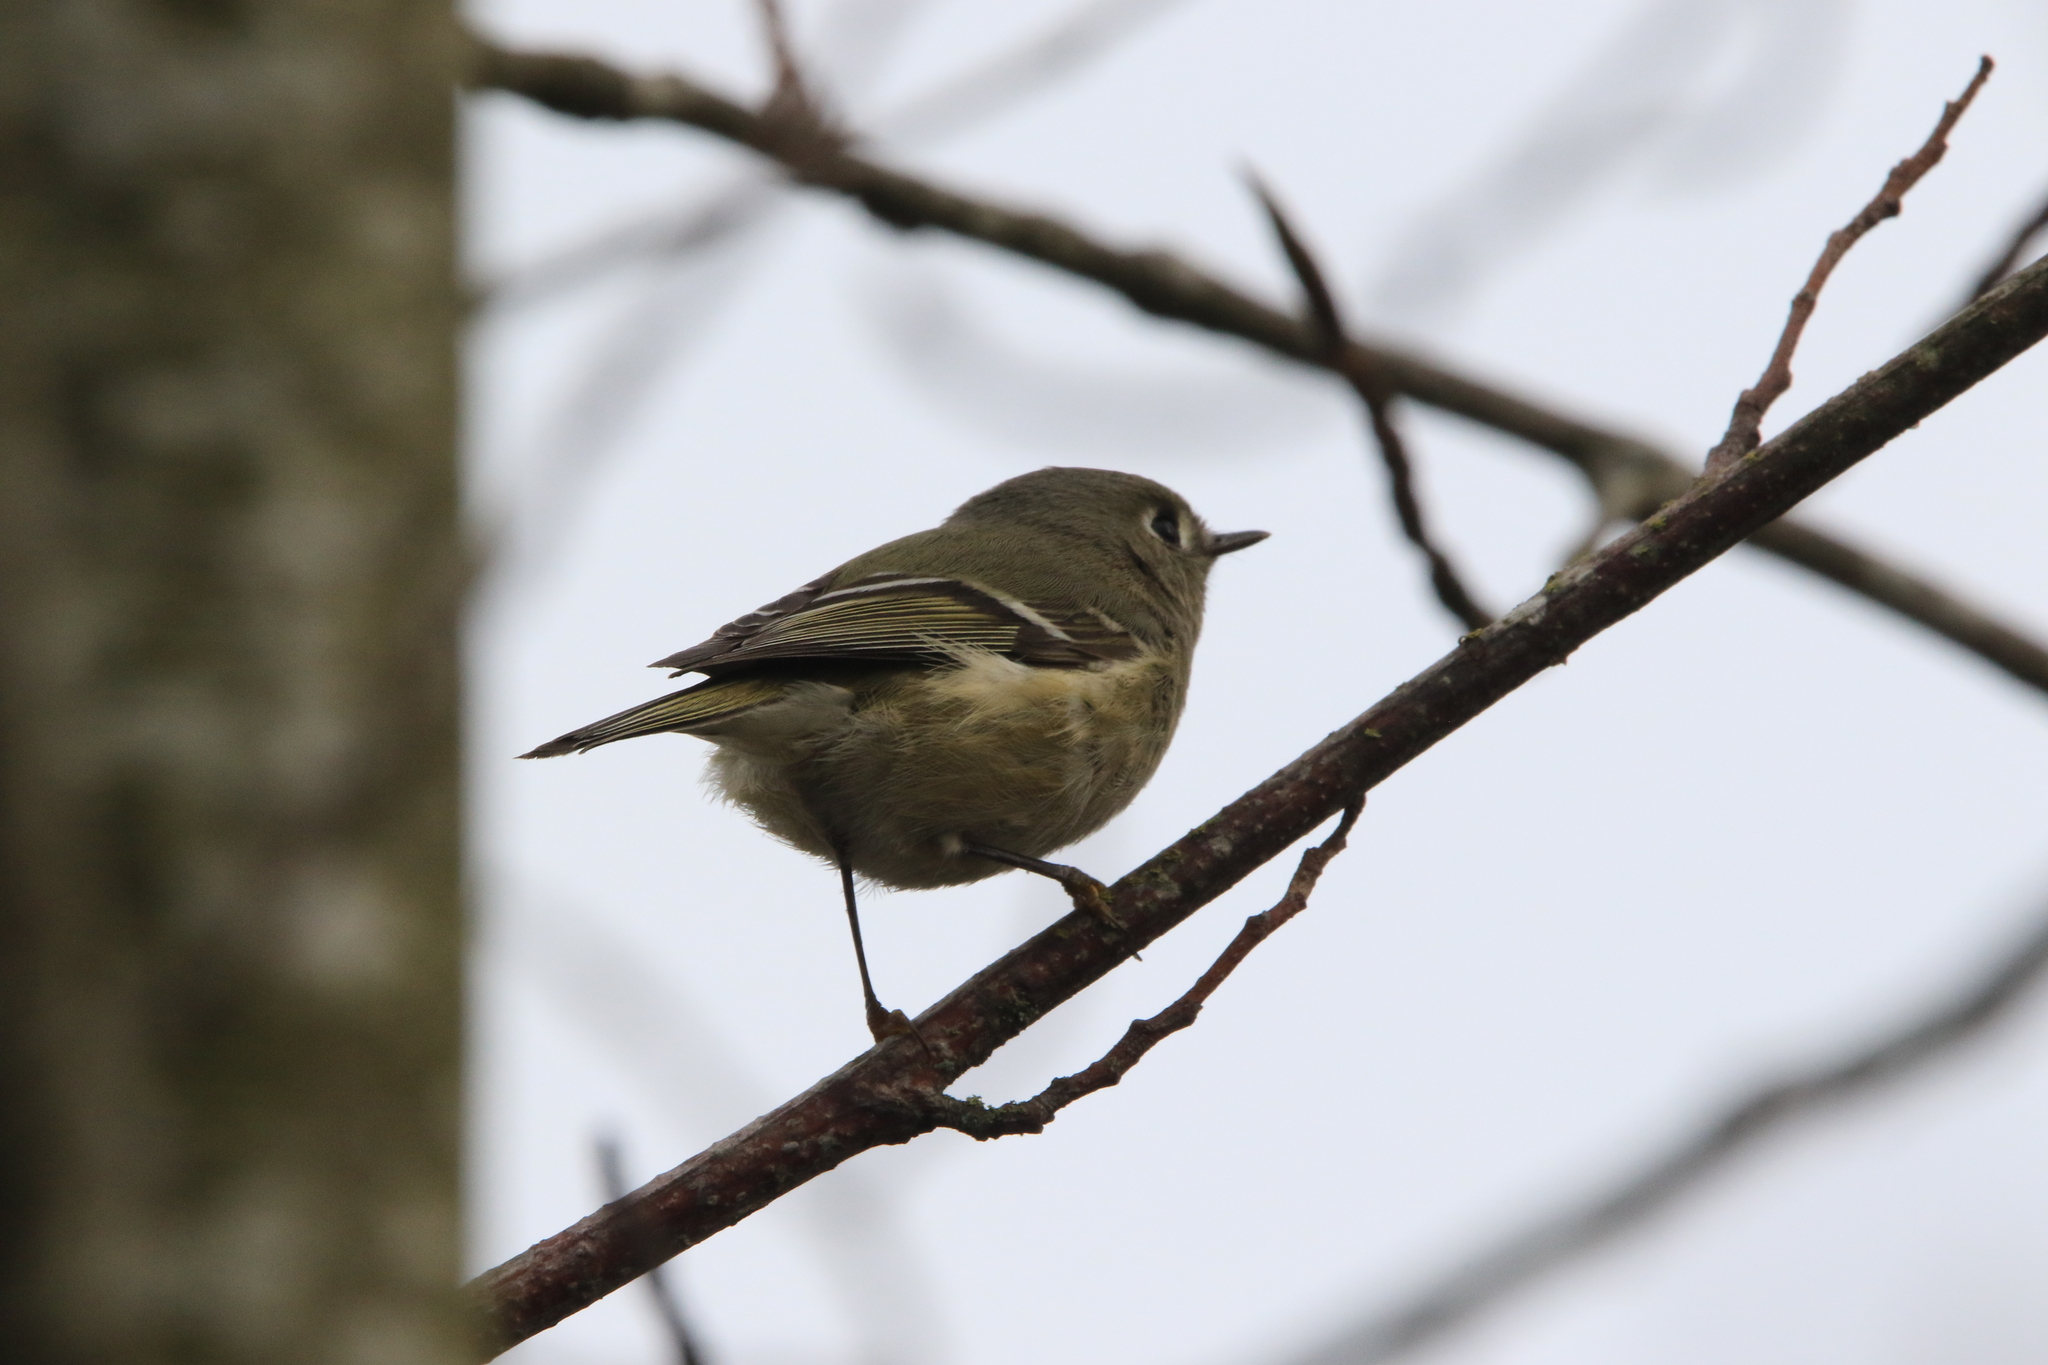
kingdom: Animalia
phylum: Chordata
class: Aves
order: Passeriformes
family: Regulidae
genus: Regulus
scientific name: Regulus calendula
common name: Ruby-crowned kinglet
